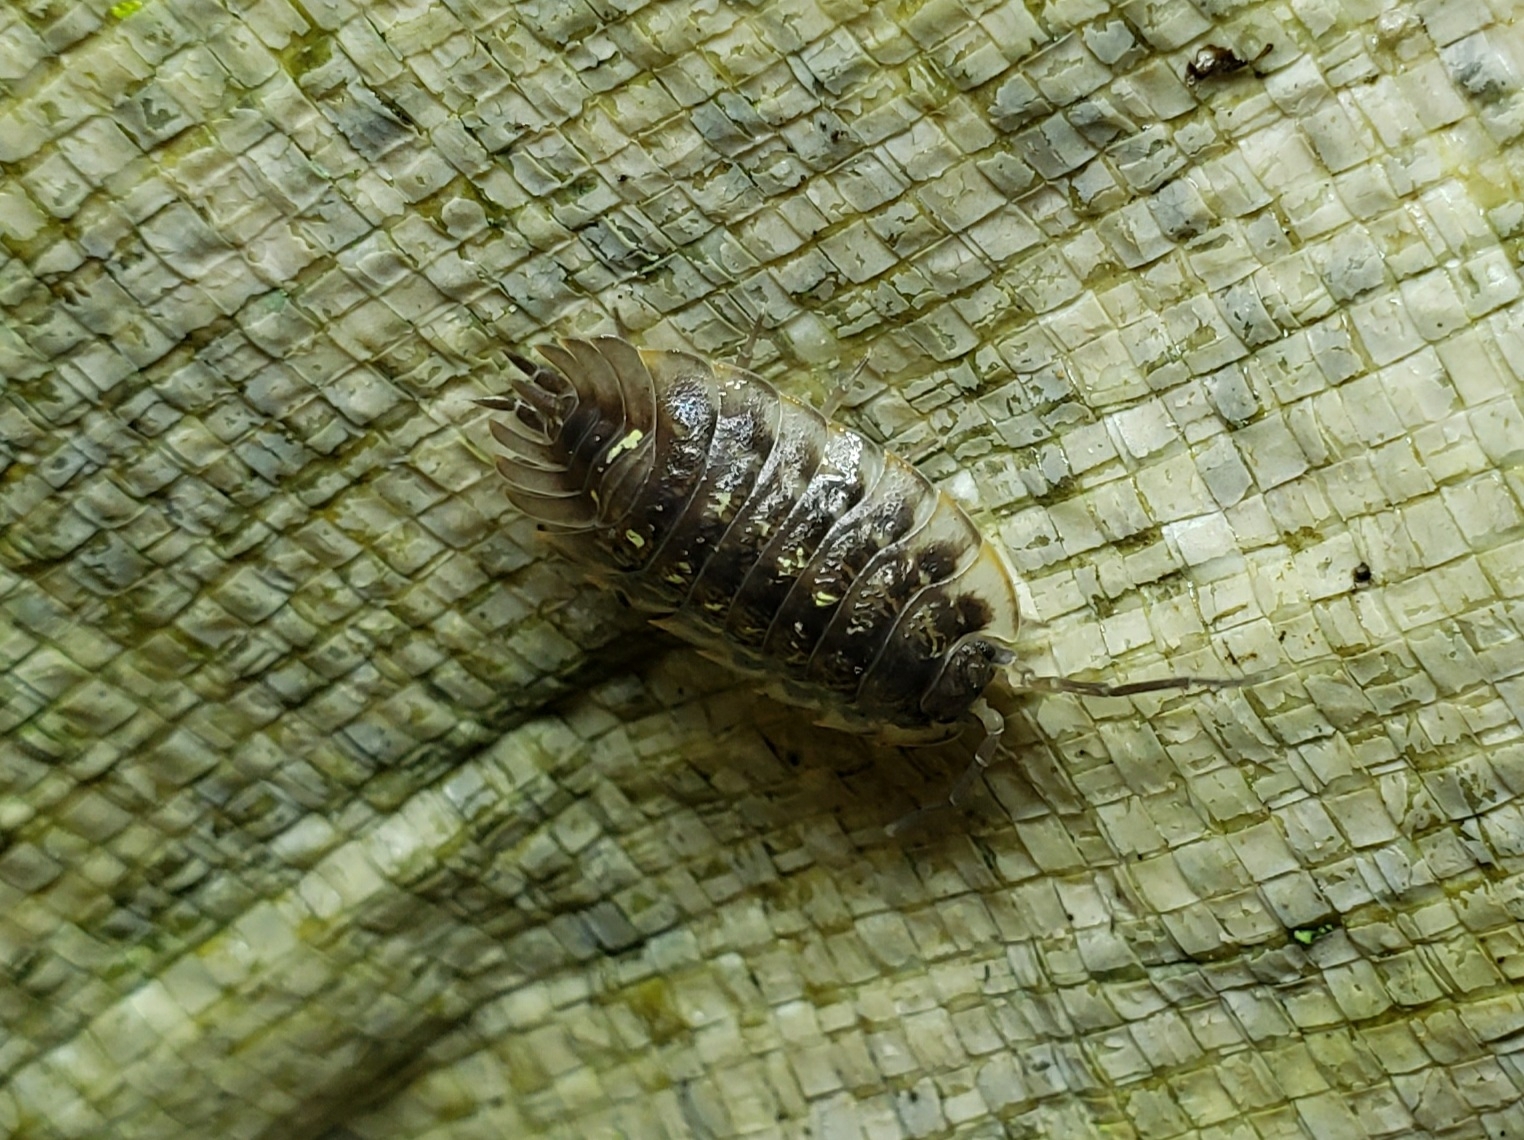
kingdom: Animalia
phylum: Arthropoda
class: Malacostraca
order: Isopoda
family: Oniscidae
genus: Oniscus
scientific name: Oniscus asellus
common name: Common shiny woodlouse
